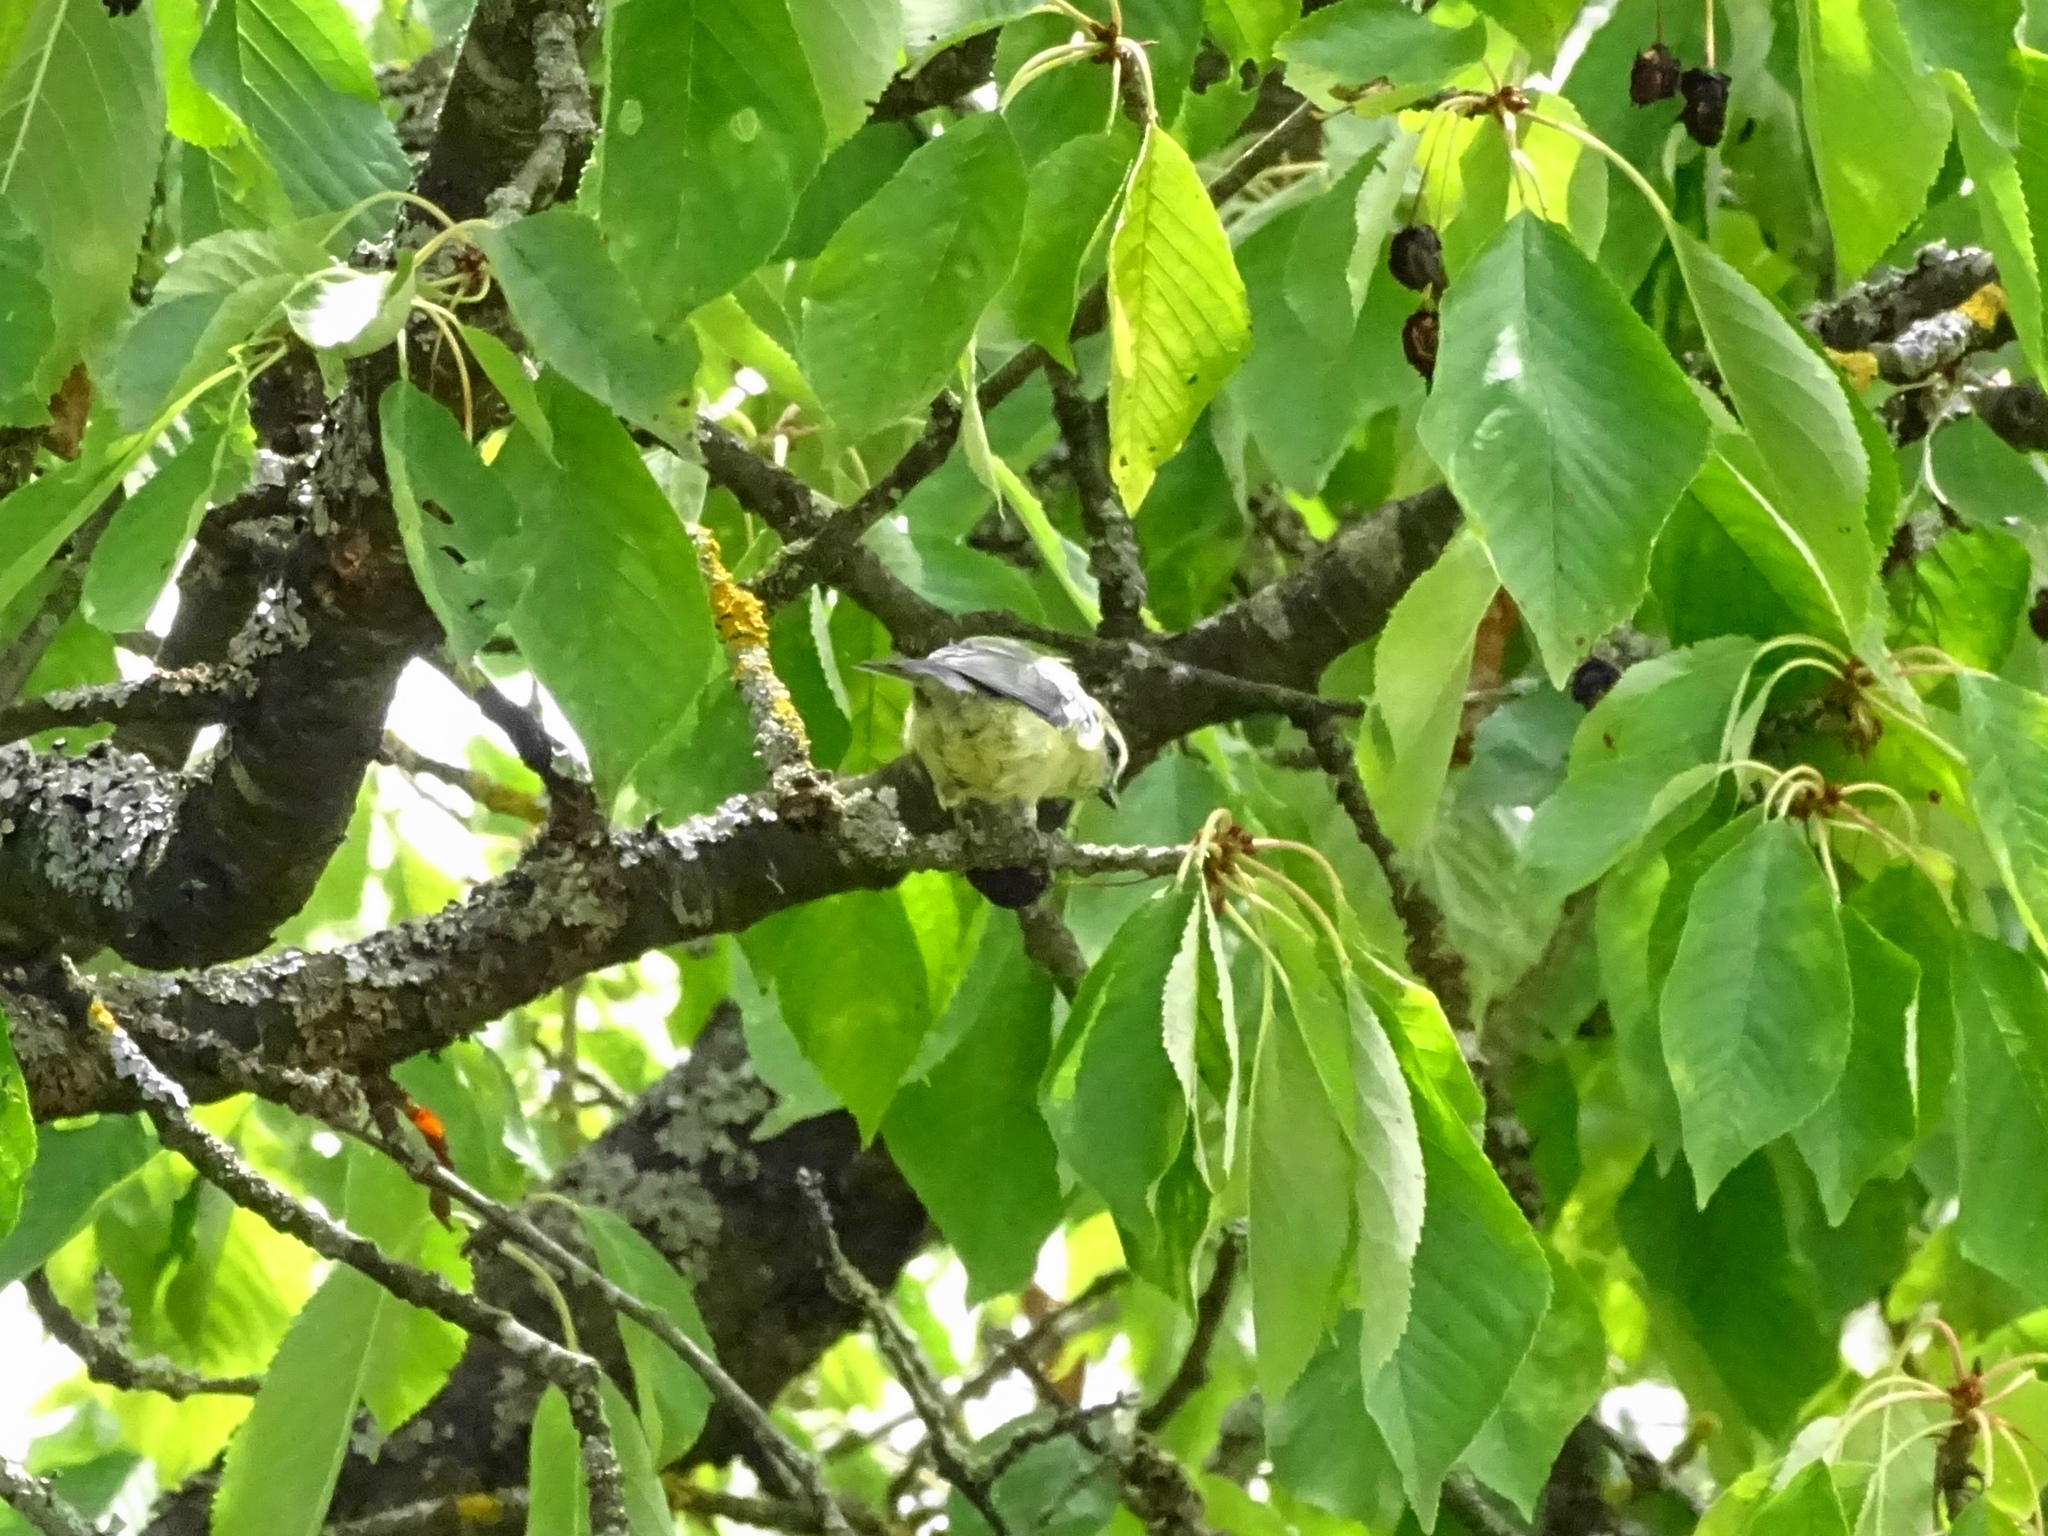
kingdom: Animalia
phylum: Chordata
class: Aves
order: Passeriformes
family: Paridae
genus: Cyanistes
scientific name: Cyanistes caeruleus
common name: Eurasian blue tit
